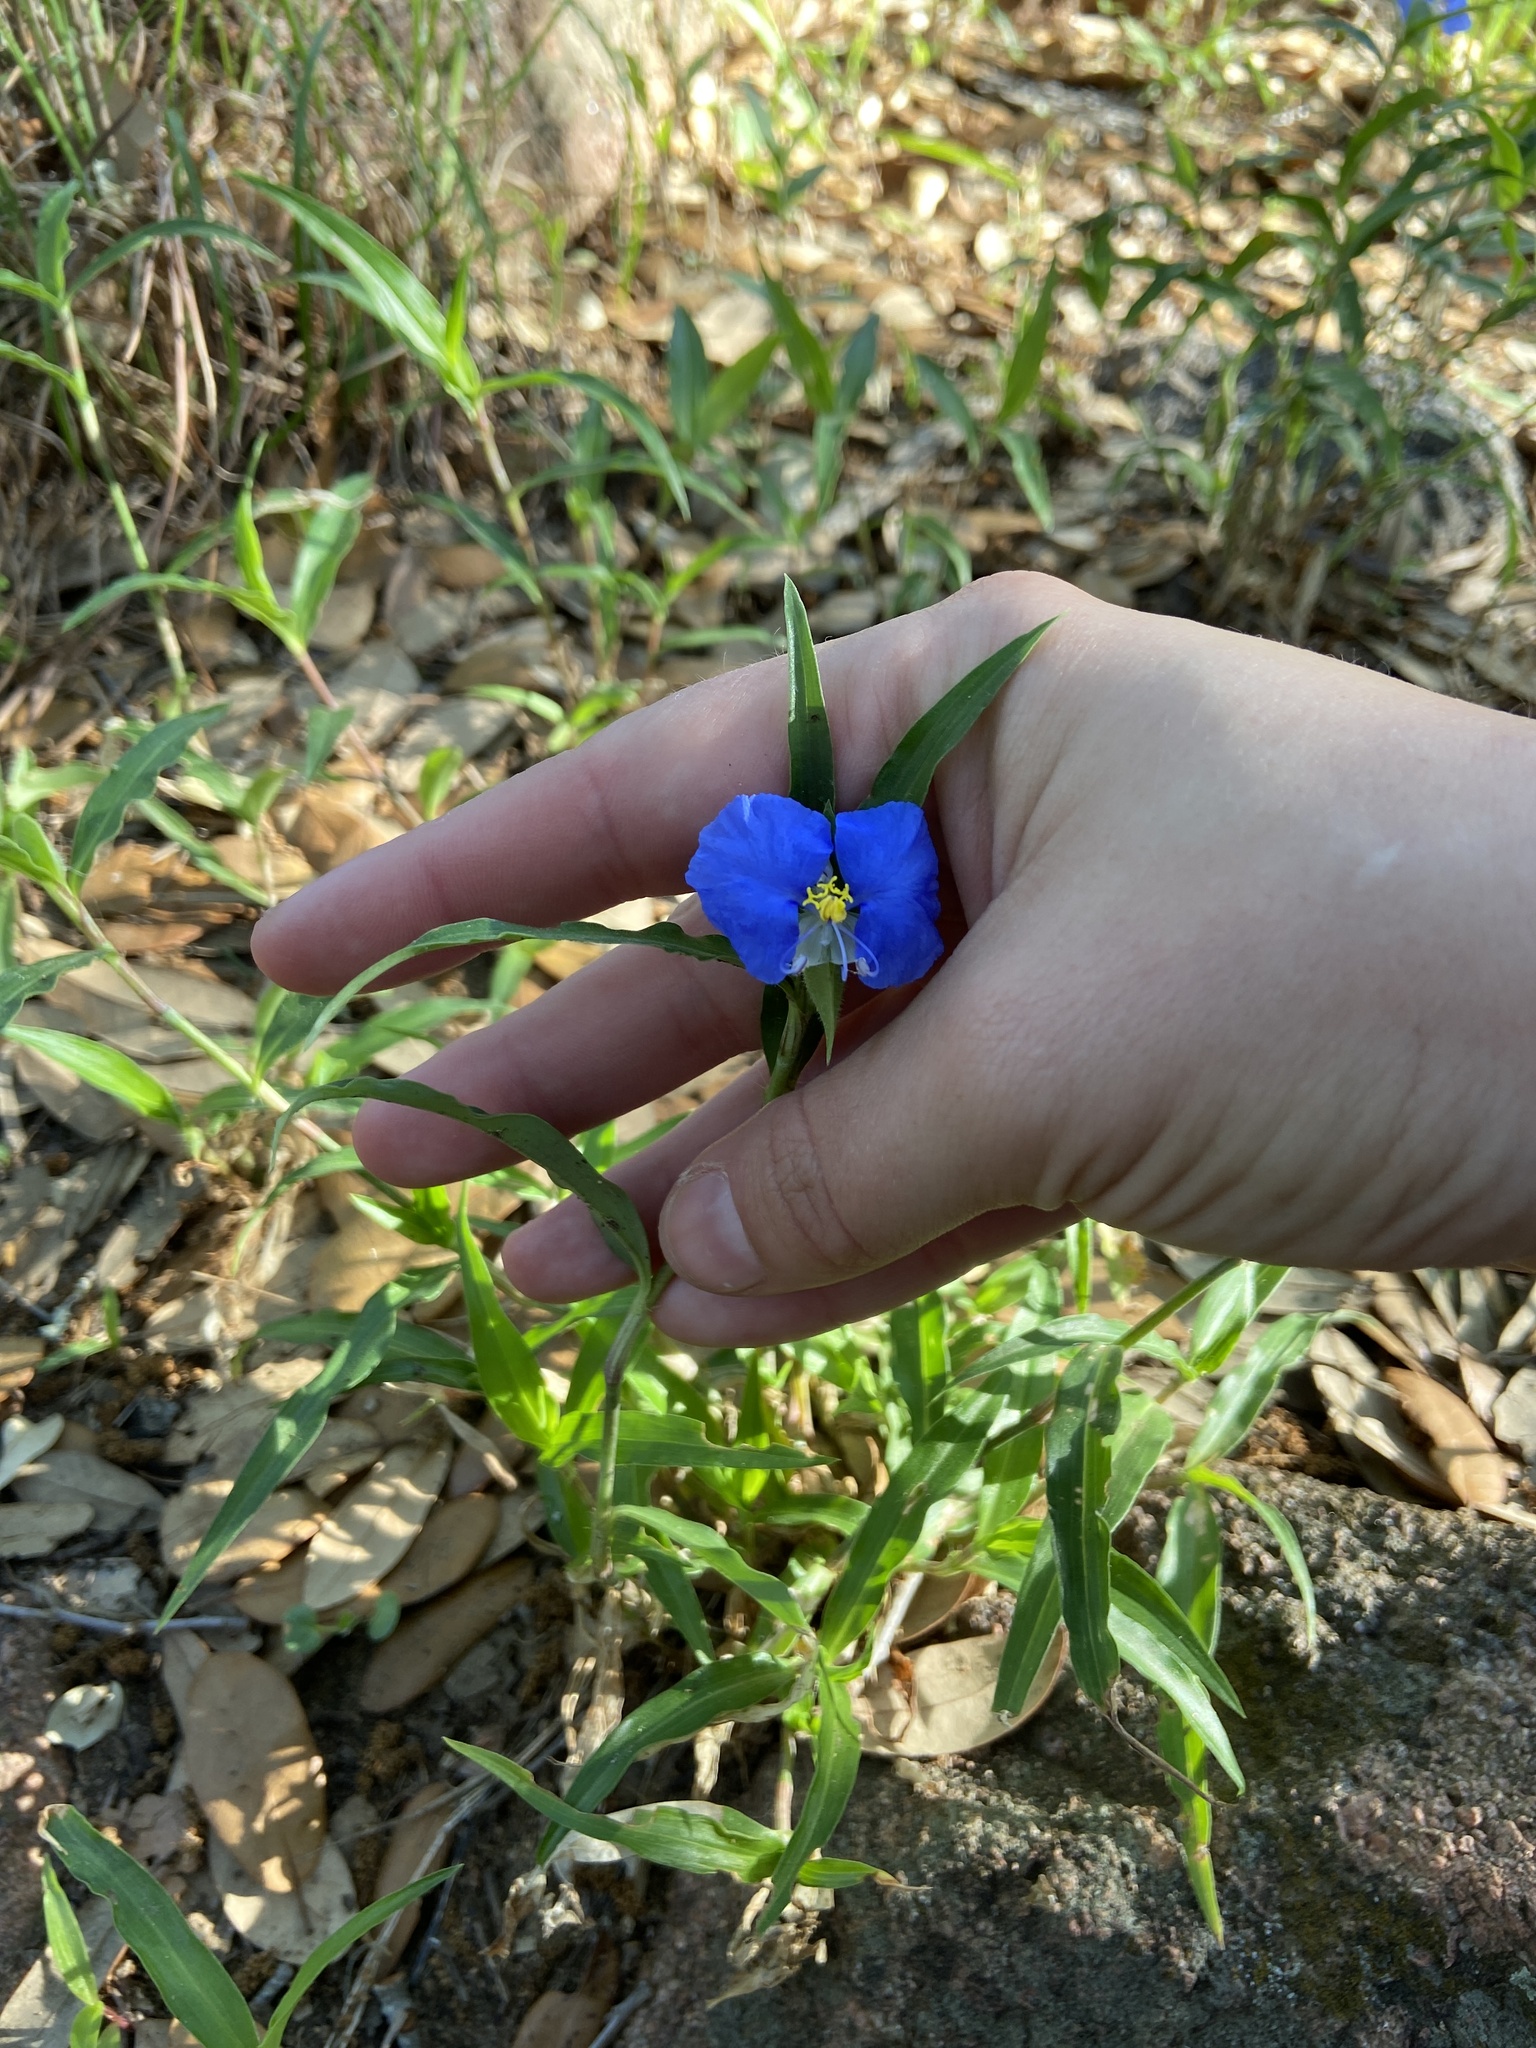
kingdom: Plantae
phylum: Tracheophyta
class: Liliopsida
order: Commelinales
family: Commelinaceae
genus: Commelina
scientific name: Commelina erecta
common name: Blousel blommetjie
